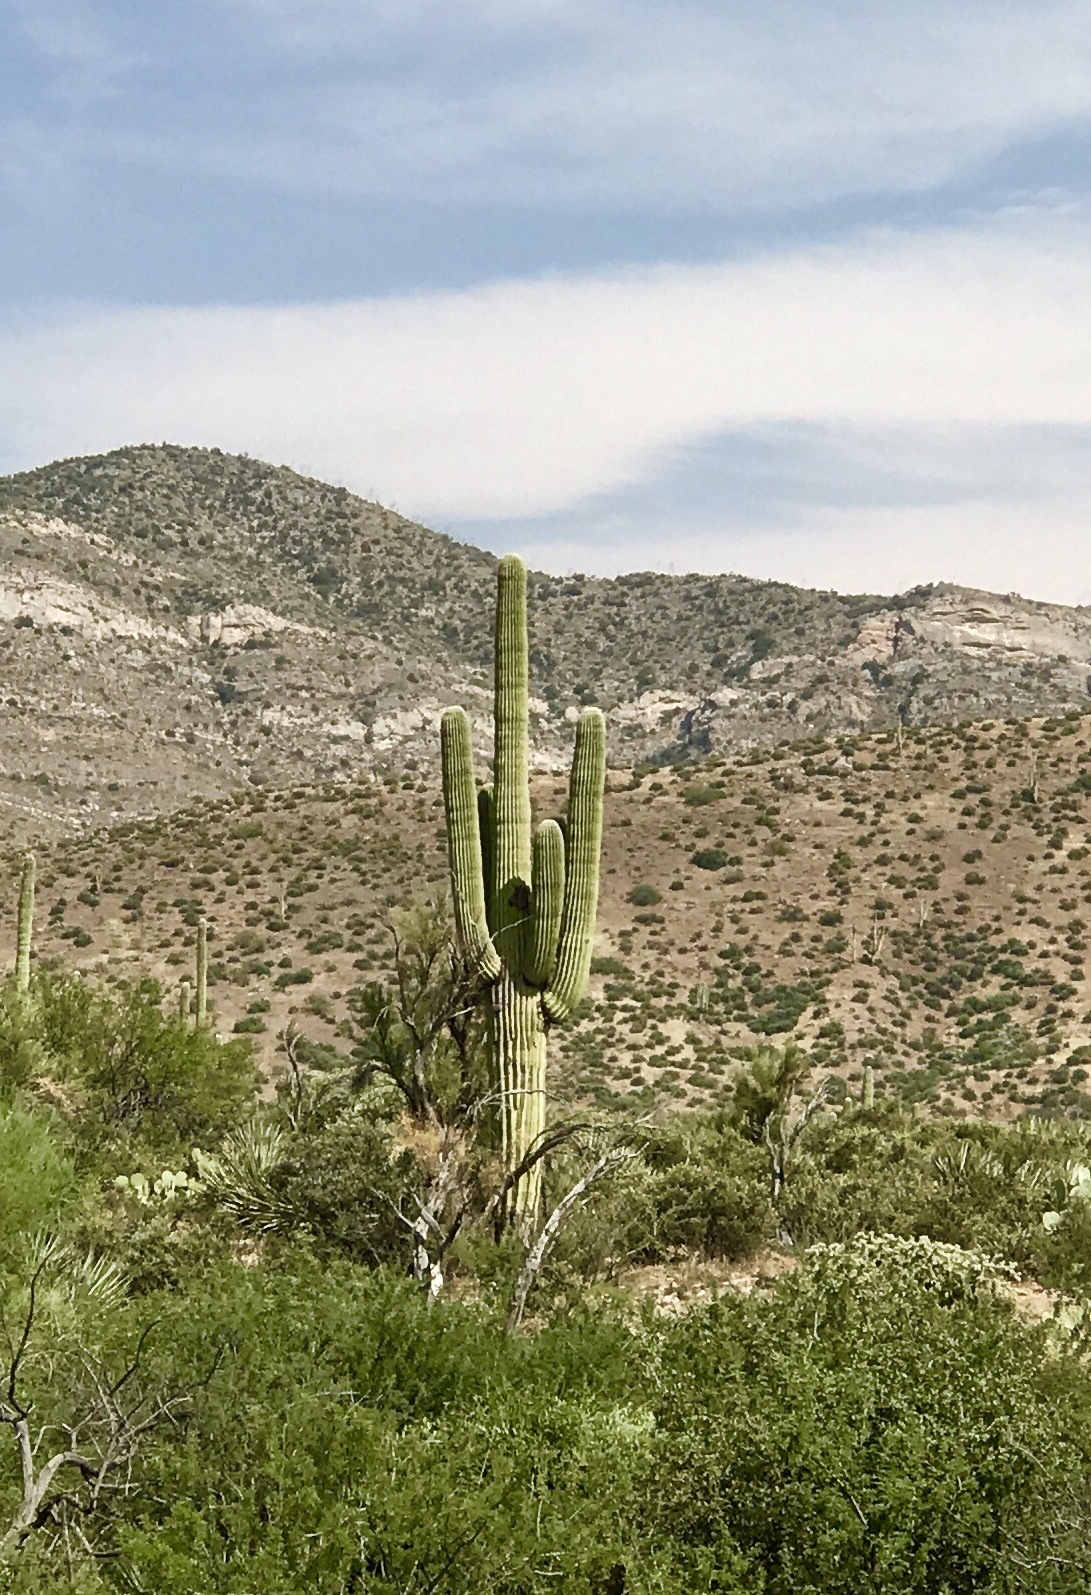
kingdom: Plantae
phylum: Tracheophyta
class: Magnoliopsida
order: Caryophyllales
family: Cactaceae
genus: Carnegiea
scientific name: Carnegiea gigantea
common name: Saguaro
